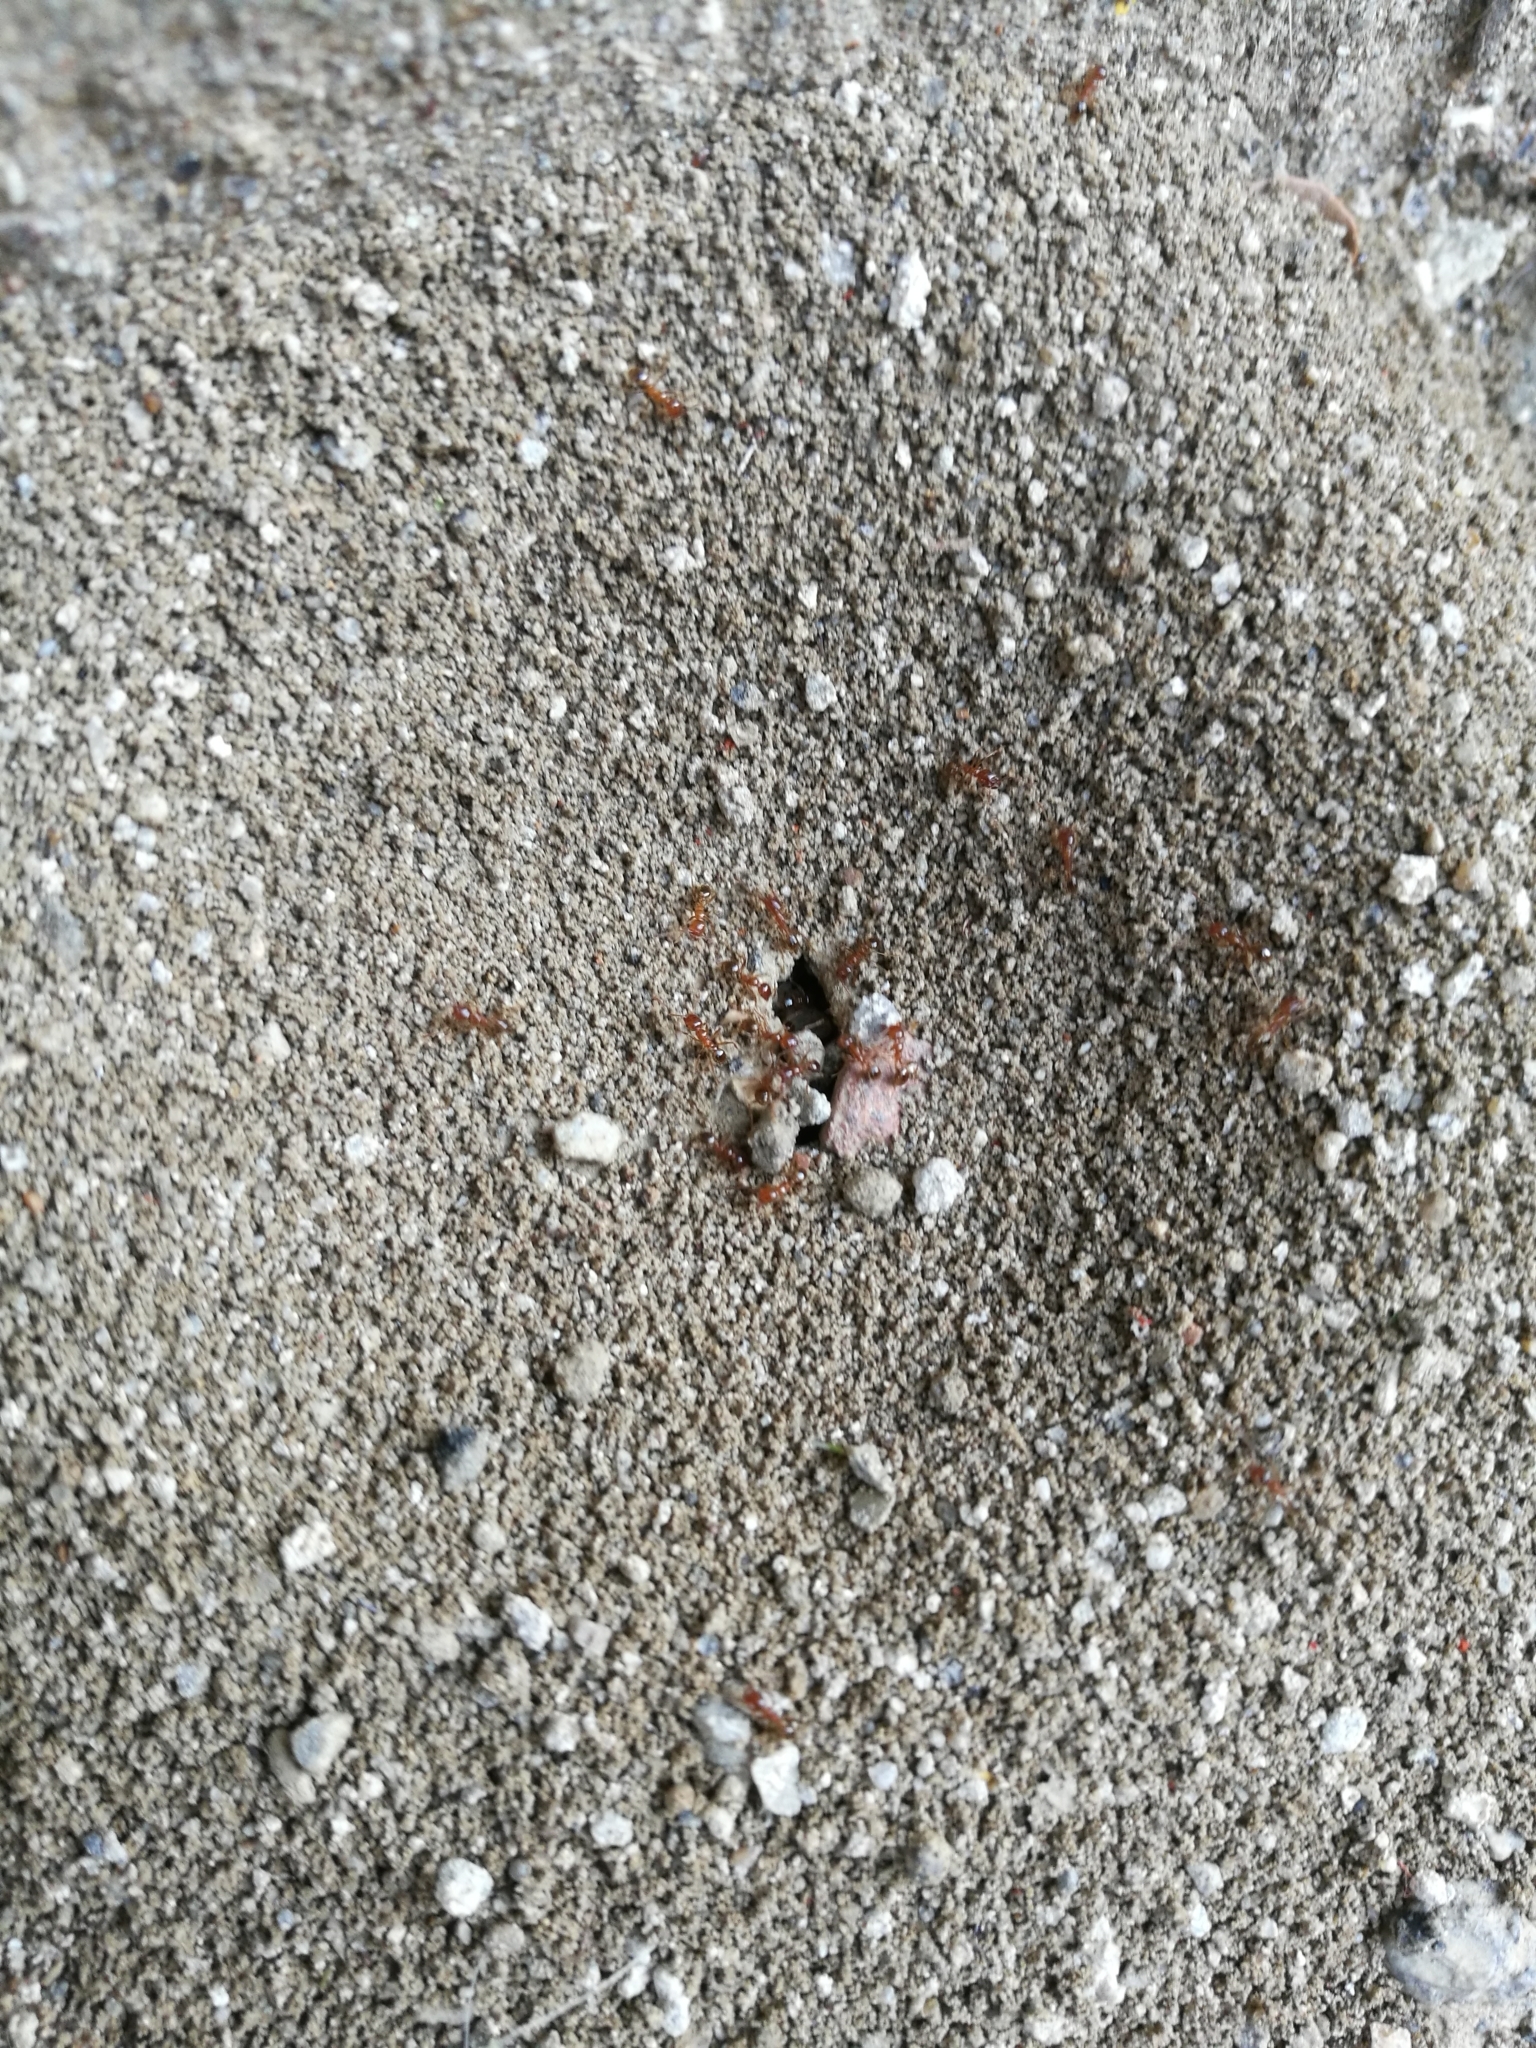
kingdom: Animalia
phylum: Arthropoda
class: Insecta
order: Hymenoptera
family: Formicidae
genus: Pheidole
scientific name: Pheidole pallidula
